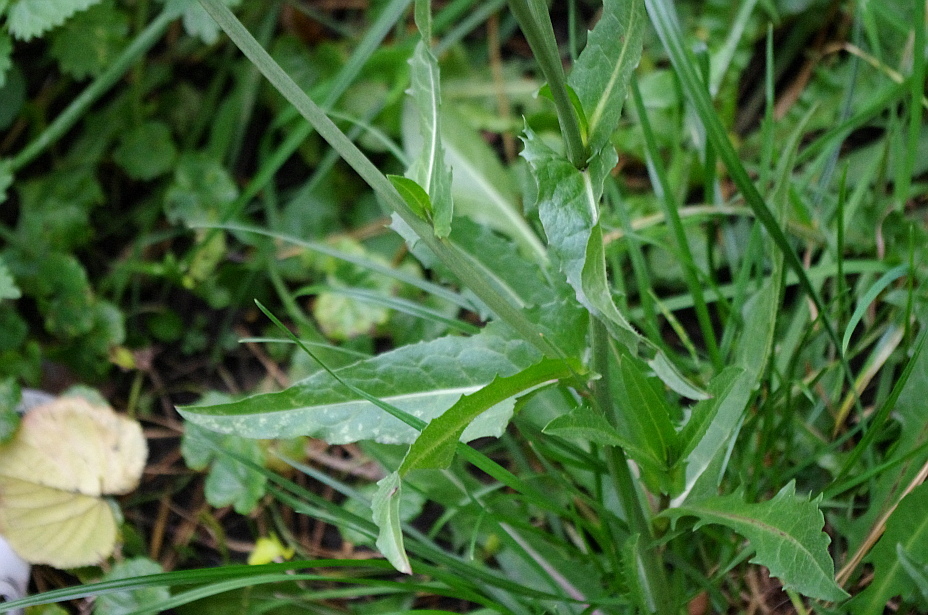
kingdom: Plantae
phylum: Tracheophyta
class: Magnoliopsida
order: Asterales
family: Asteraceae
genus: Cichorium
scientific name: Cichorium intybus
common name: Chicory
